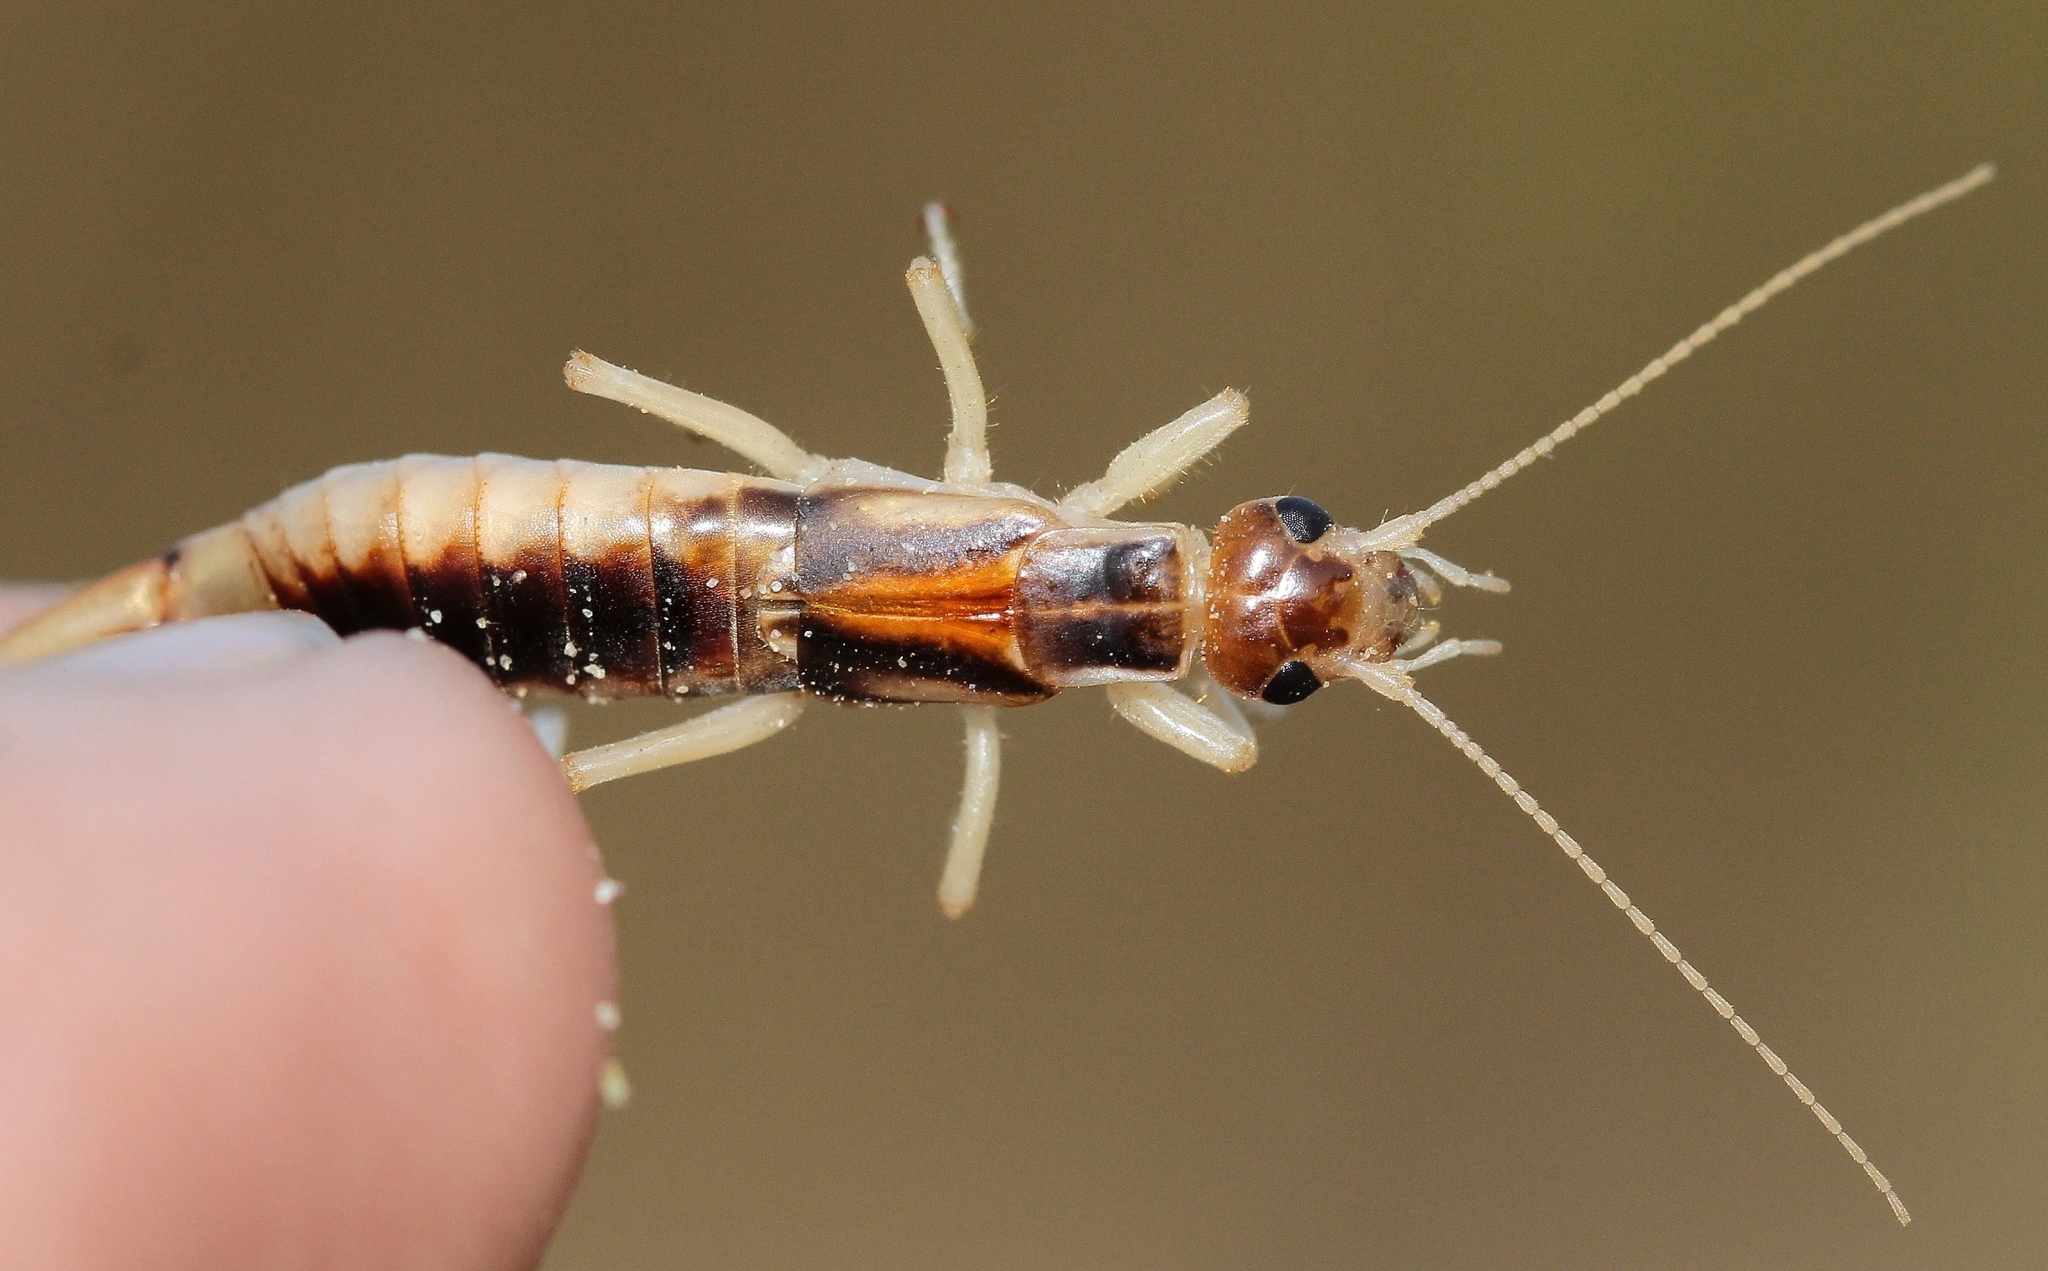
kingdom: Animalia
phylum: Arthropoda
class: Insecta
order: Dermaptera
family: Labiduridae
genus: Labidura
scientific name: Labidura riparia
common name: Striped earwig
